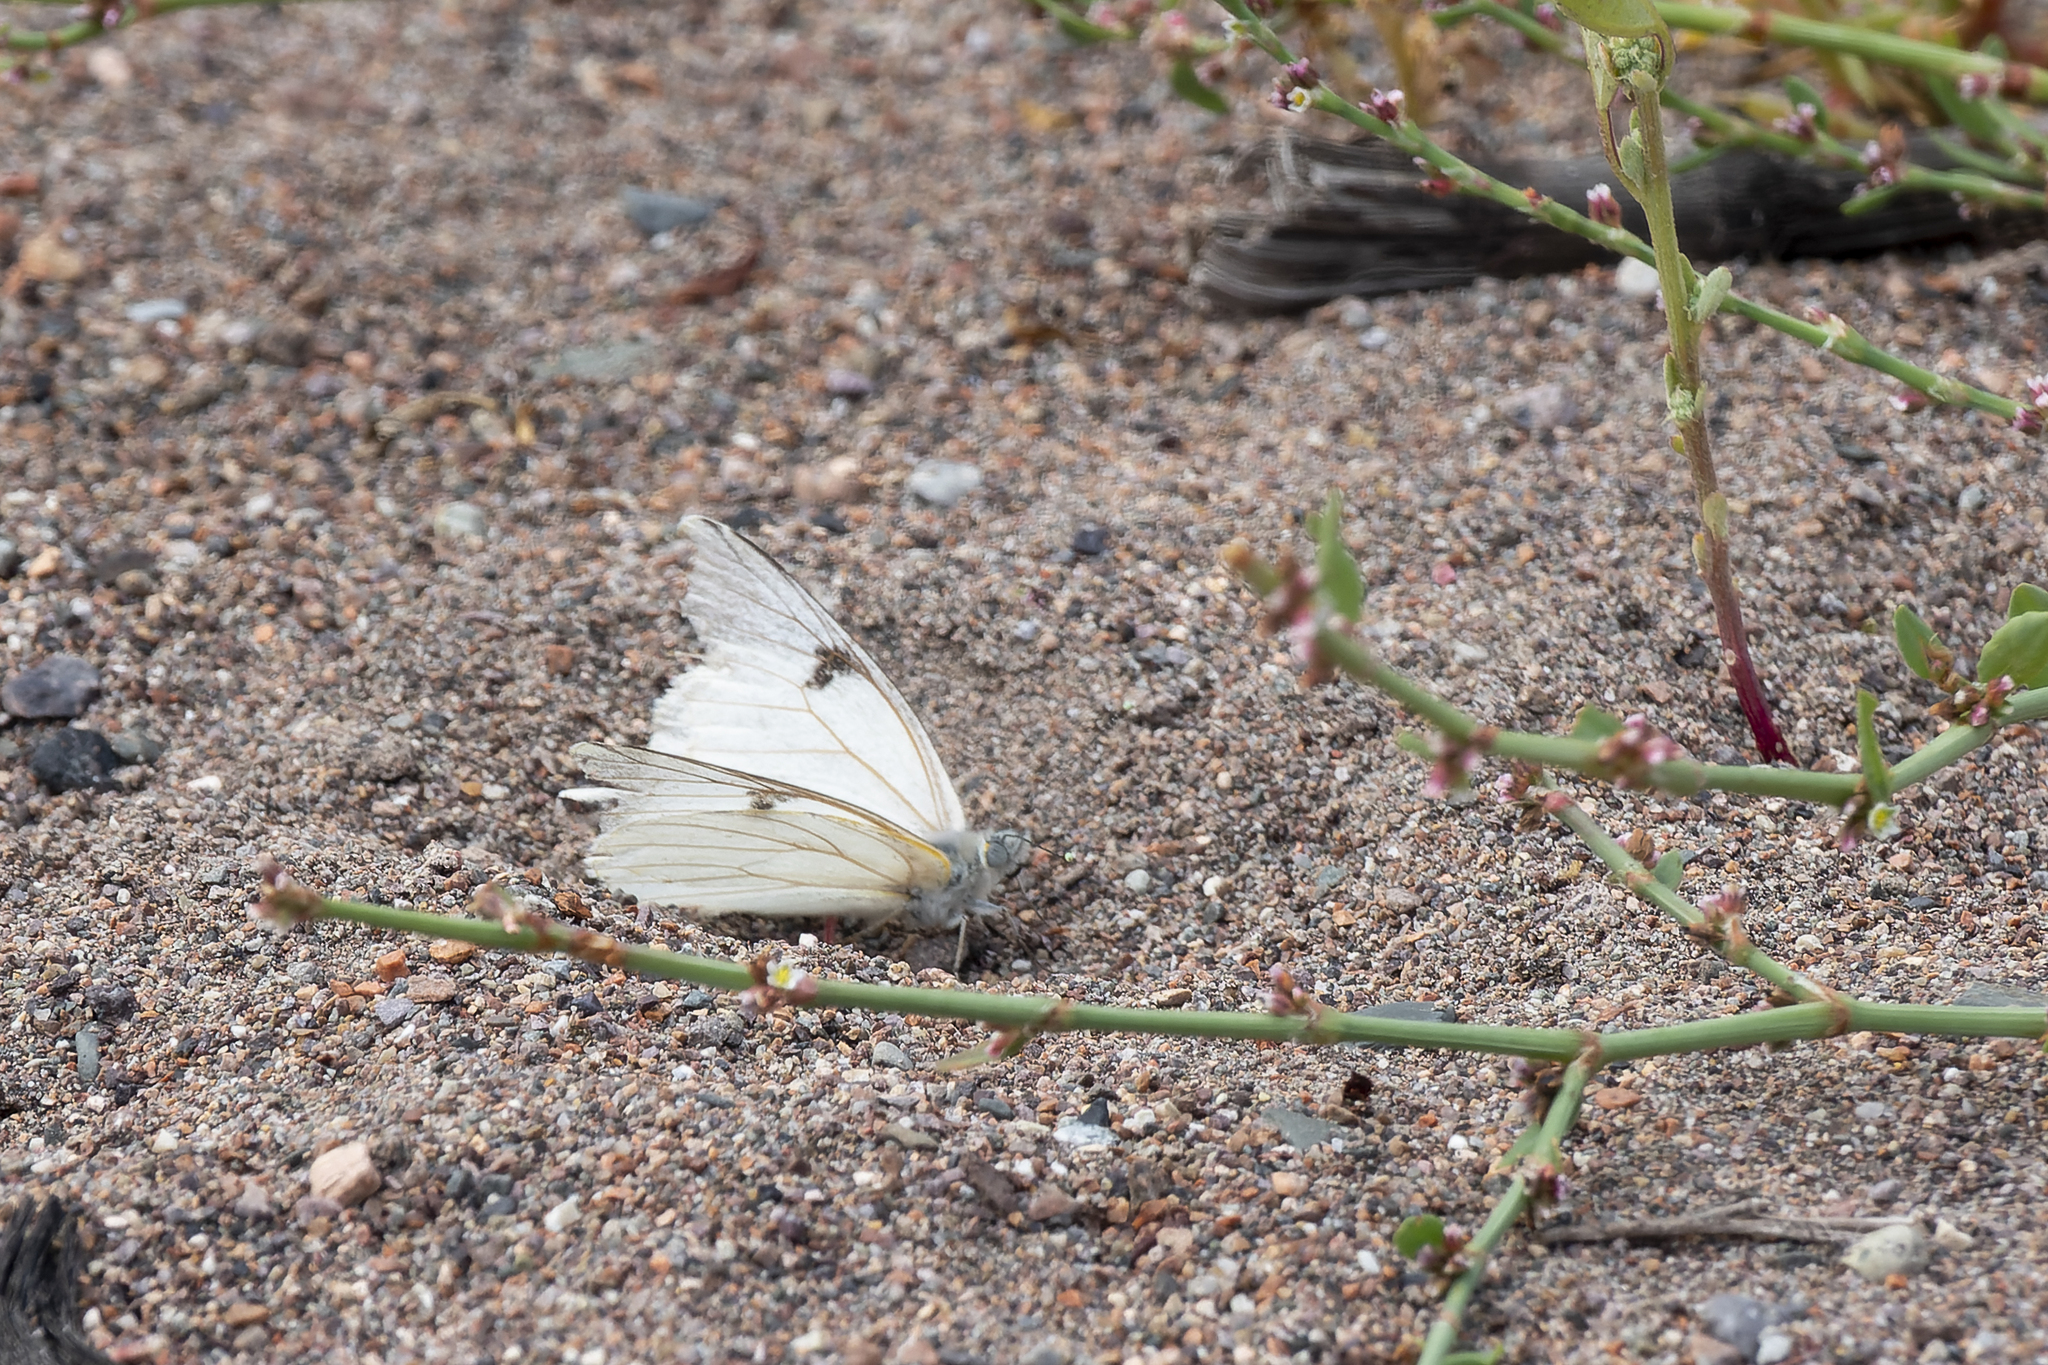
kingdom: Animalia
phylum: Arthropoda
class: Insecta
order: Lepidoptera
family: Pieridae
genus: Tatochila
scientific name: Tatochila mercedis
